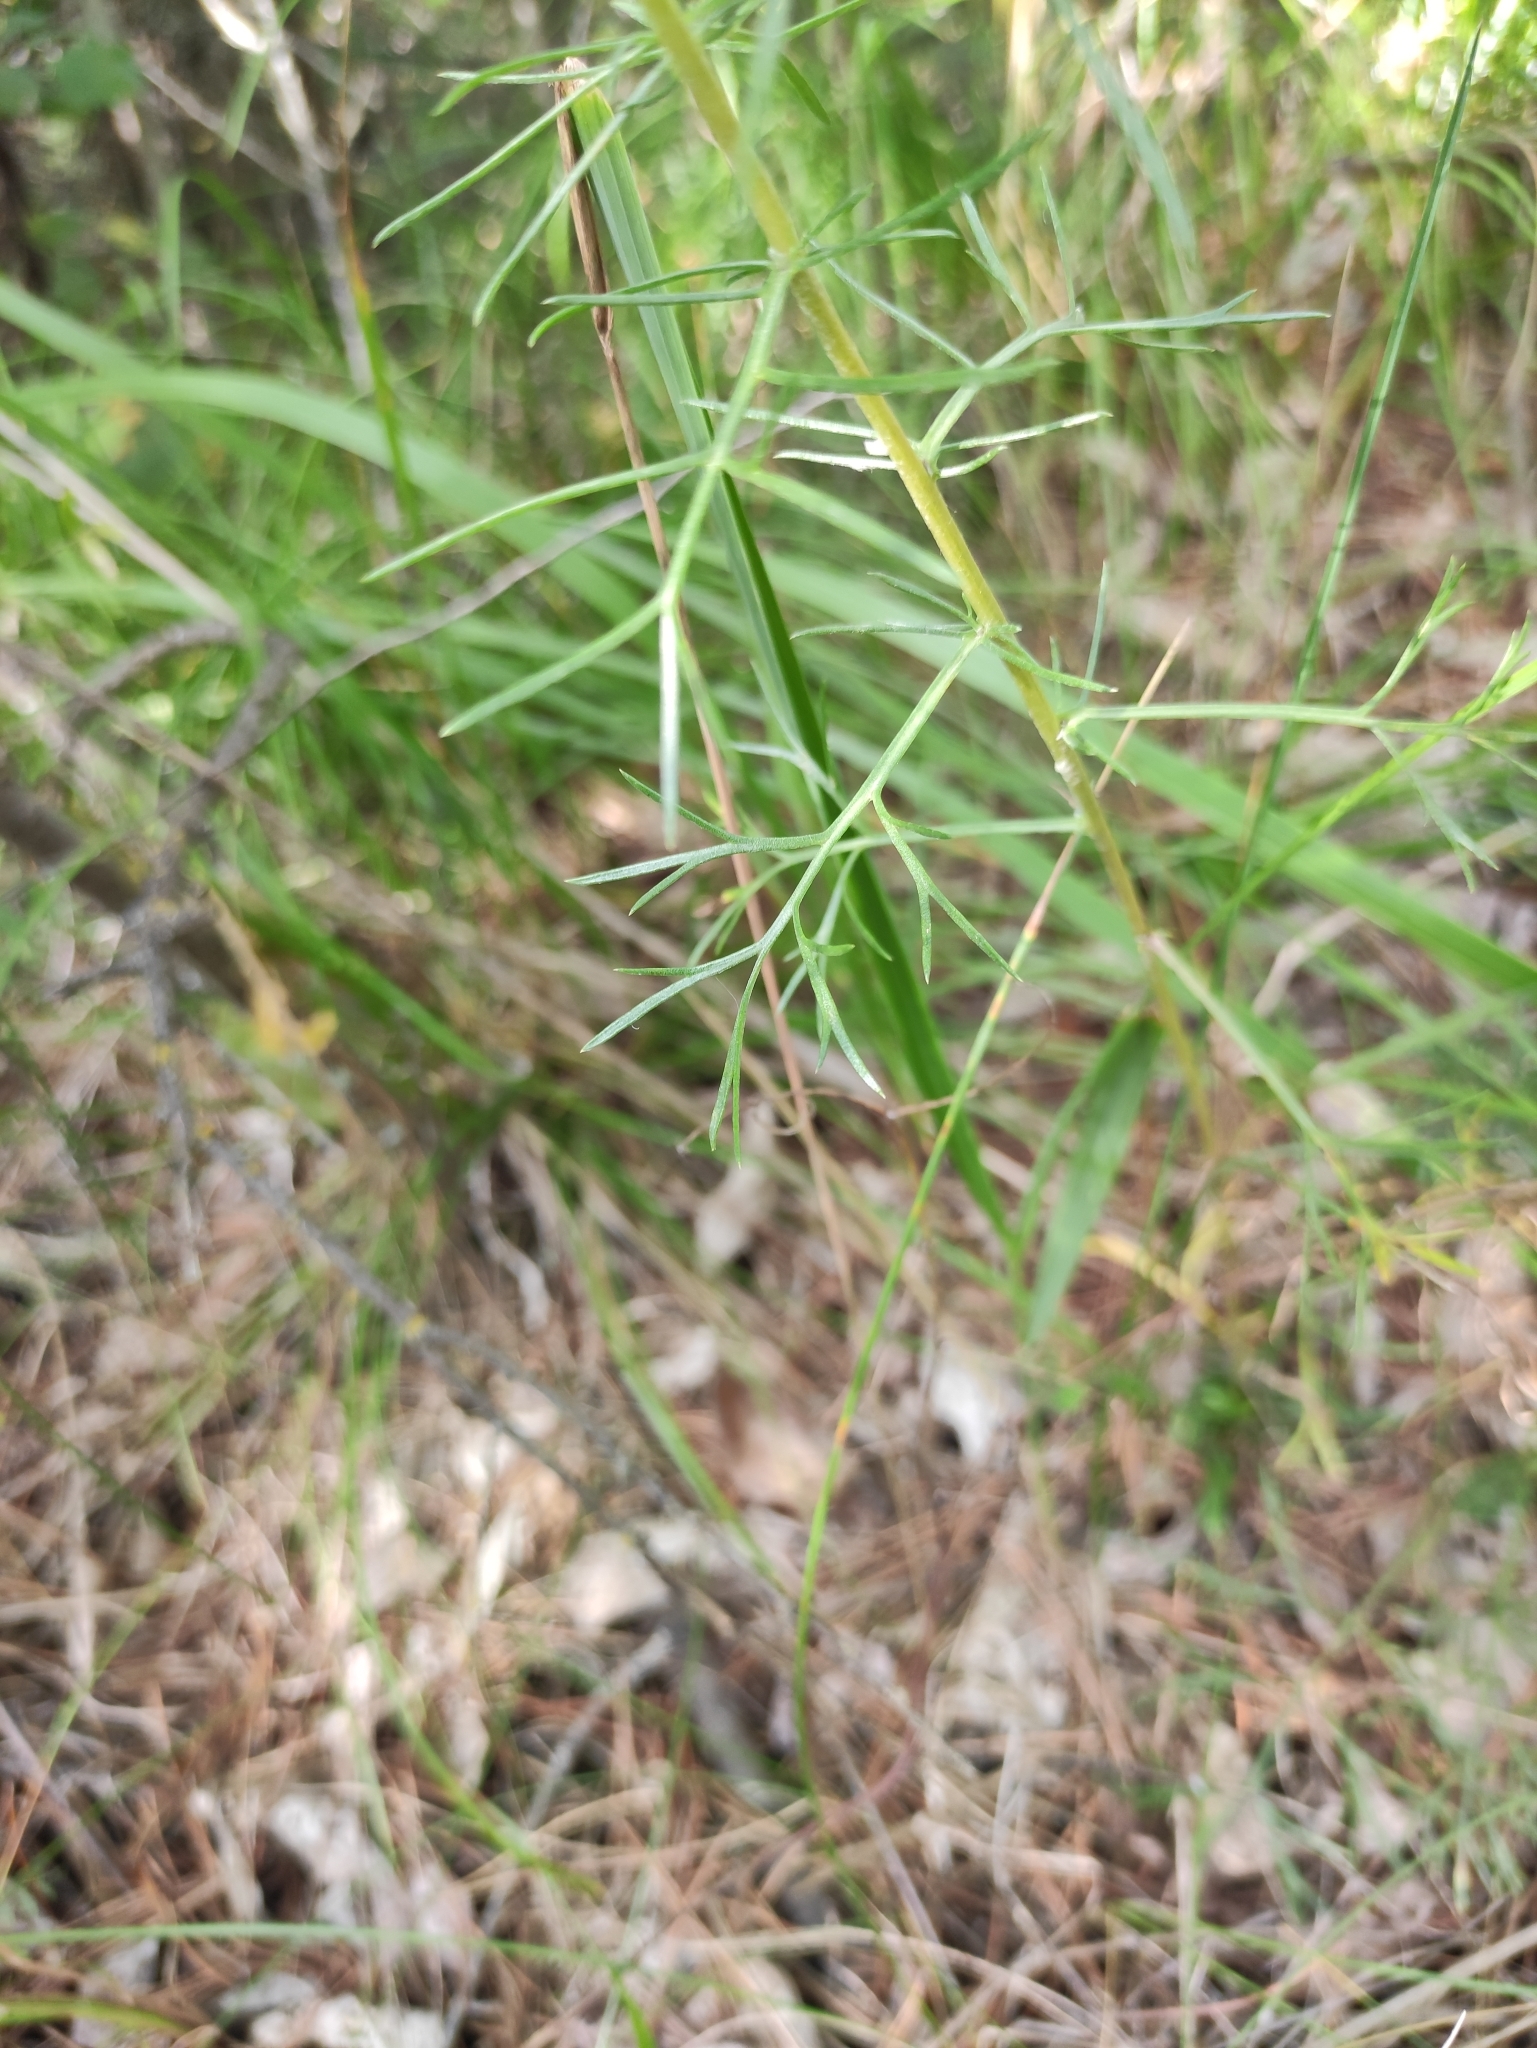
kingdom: Plantae
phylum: Tracheophyta
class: Magnoliopsida
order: Asterales
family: Asteraceae
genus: Artemisia
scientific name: Artemisia pubescens
